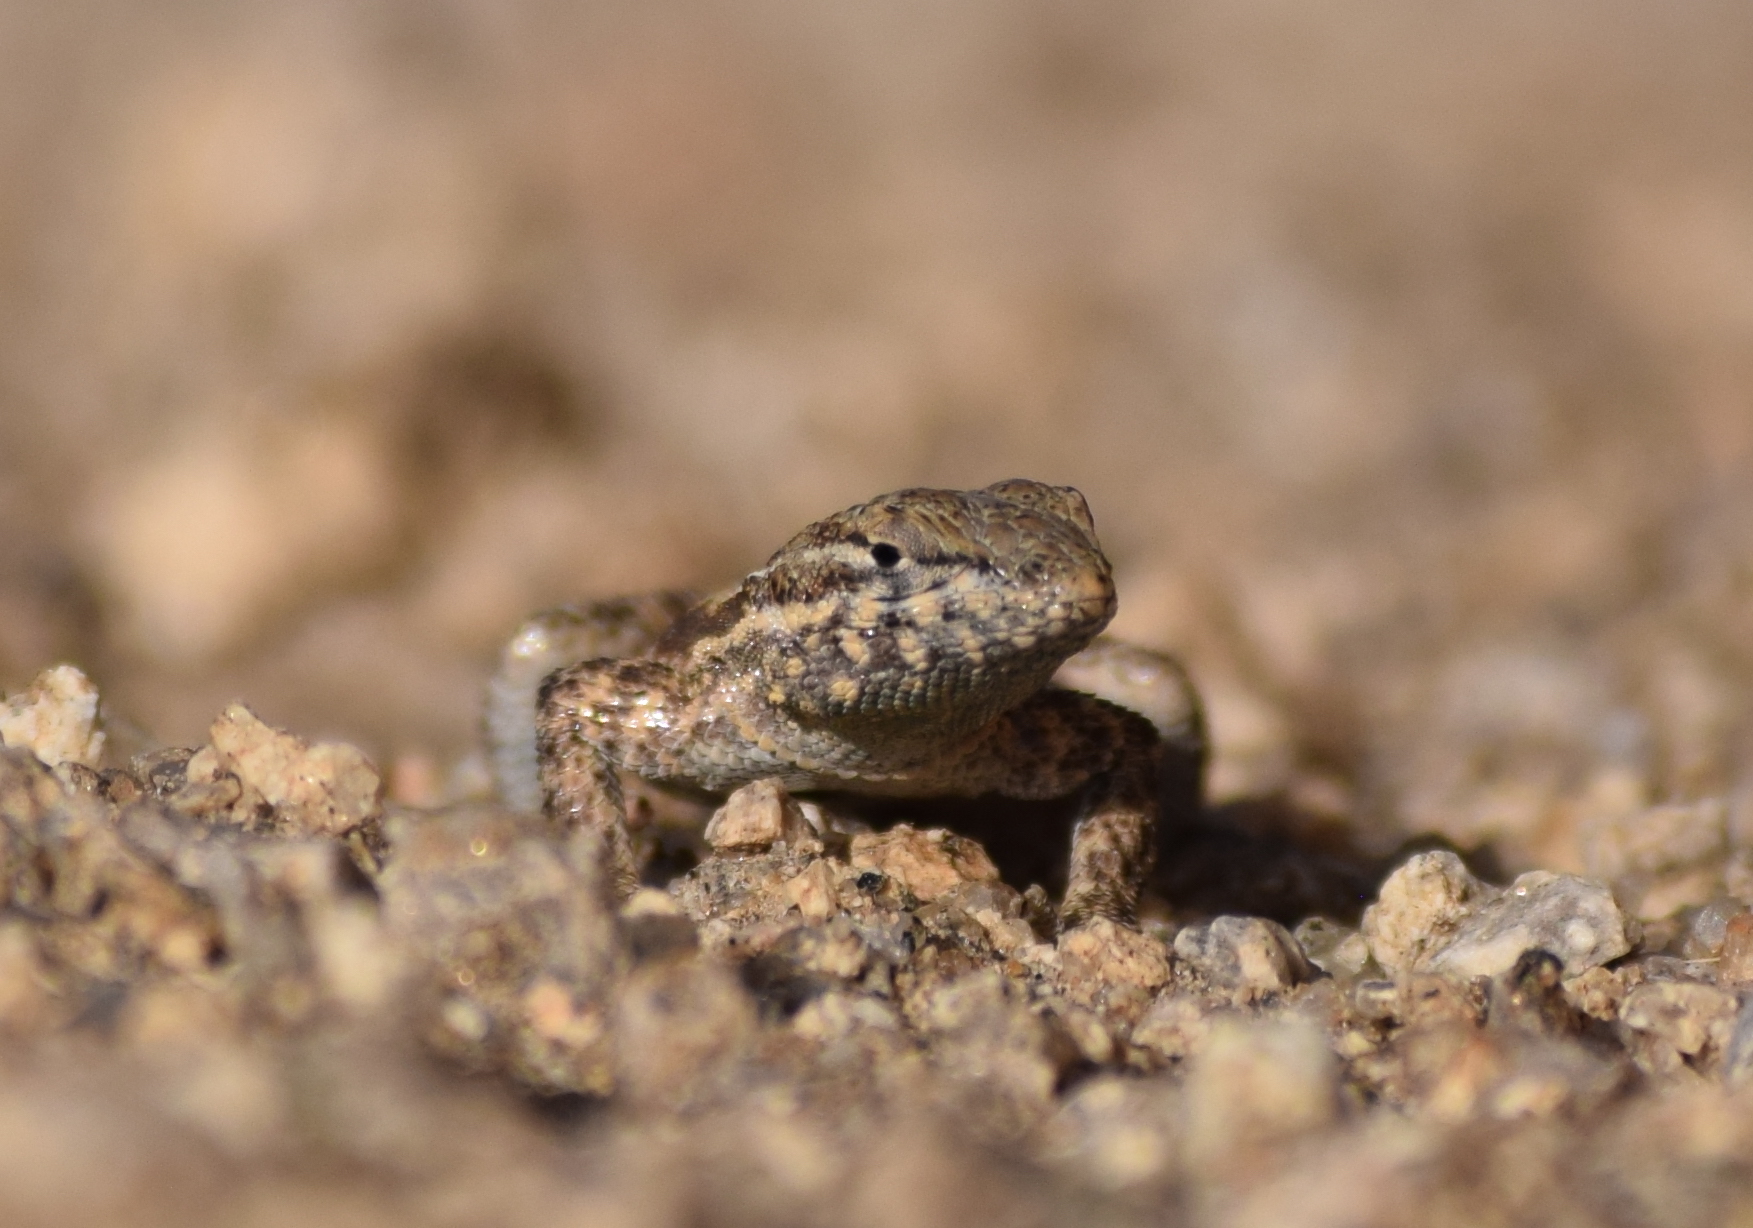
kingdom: Animalia
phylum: Chordata
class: Squamata
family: Phrynosomatidae
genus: Uta
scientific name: Uta stansburiana
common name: Side-blotched lizard
